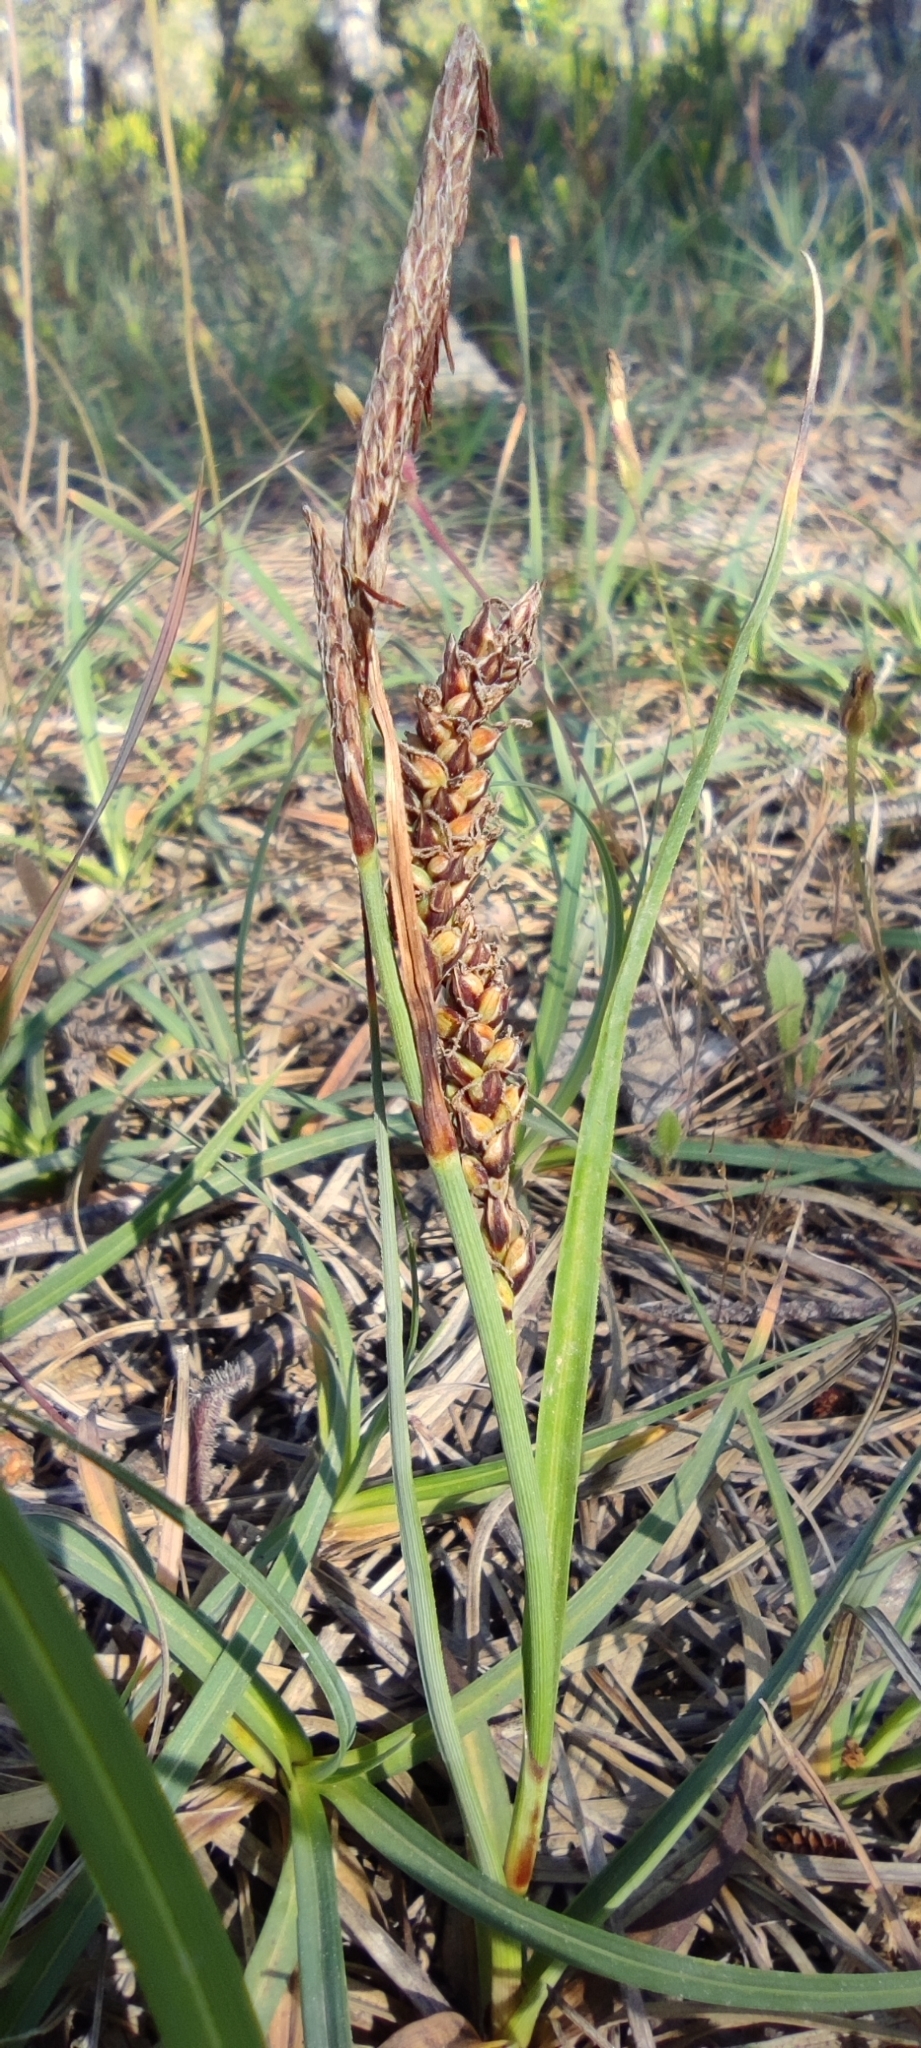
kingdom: Plantae
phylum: Tracheophyta
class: Liliopsida
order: Poales
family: Cyperaceae
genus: Carex
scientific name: Carex flacca
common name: Glaucous sedge
